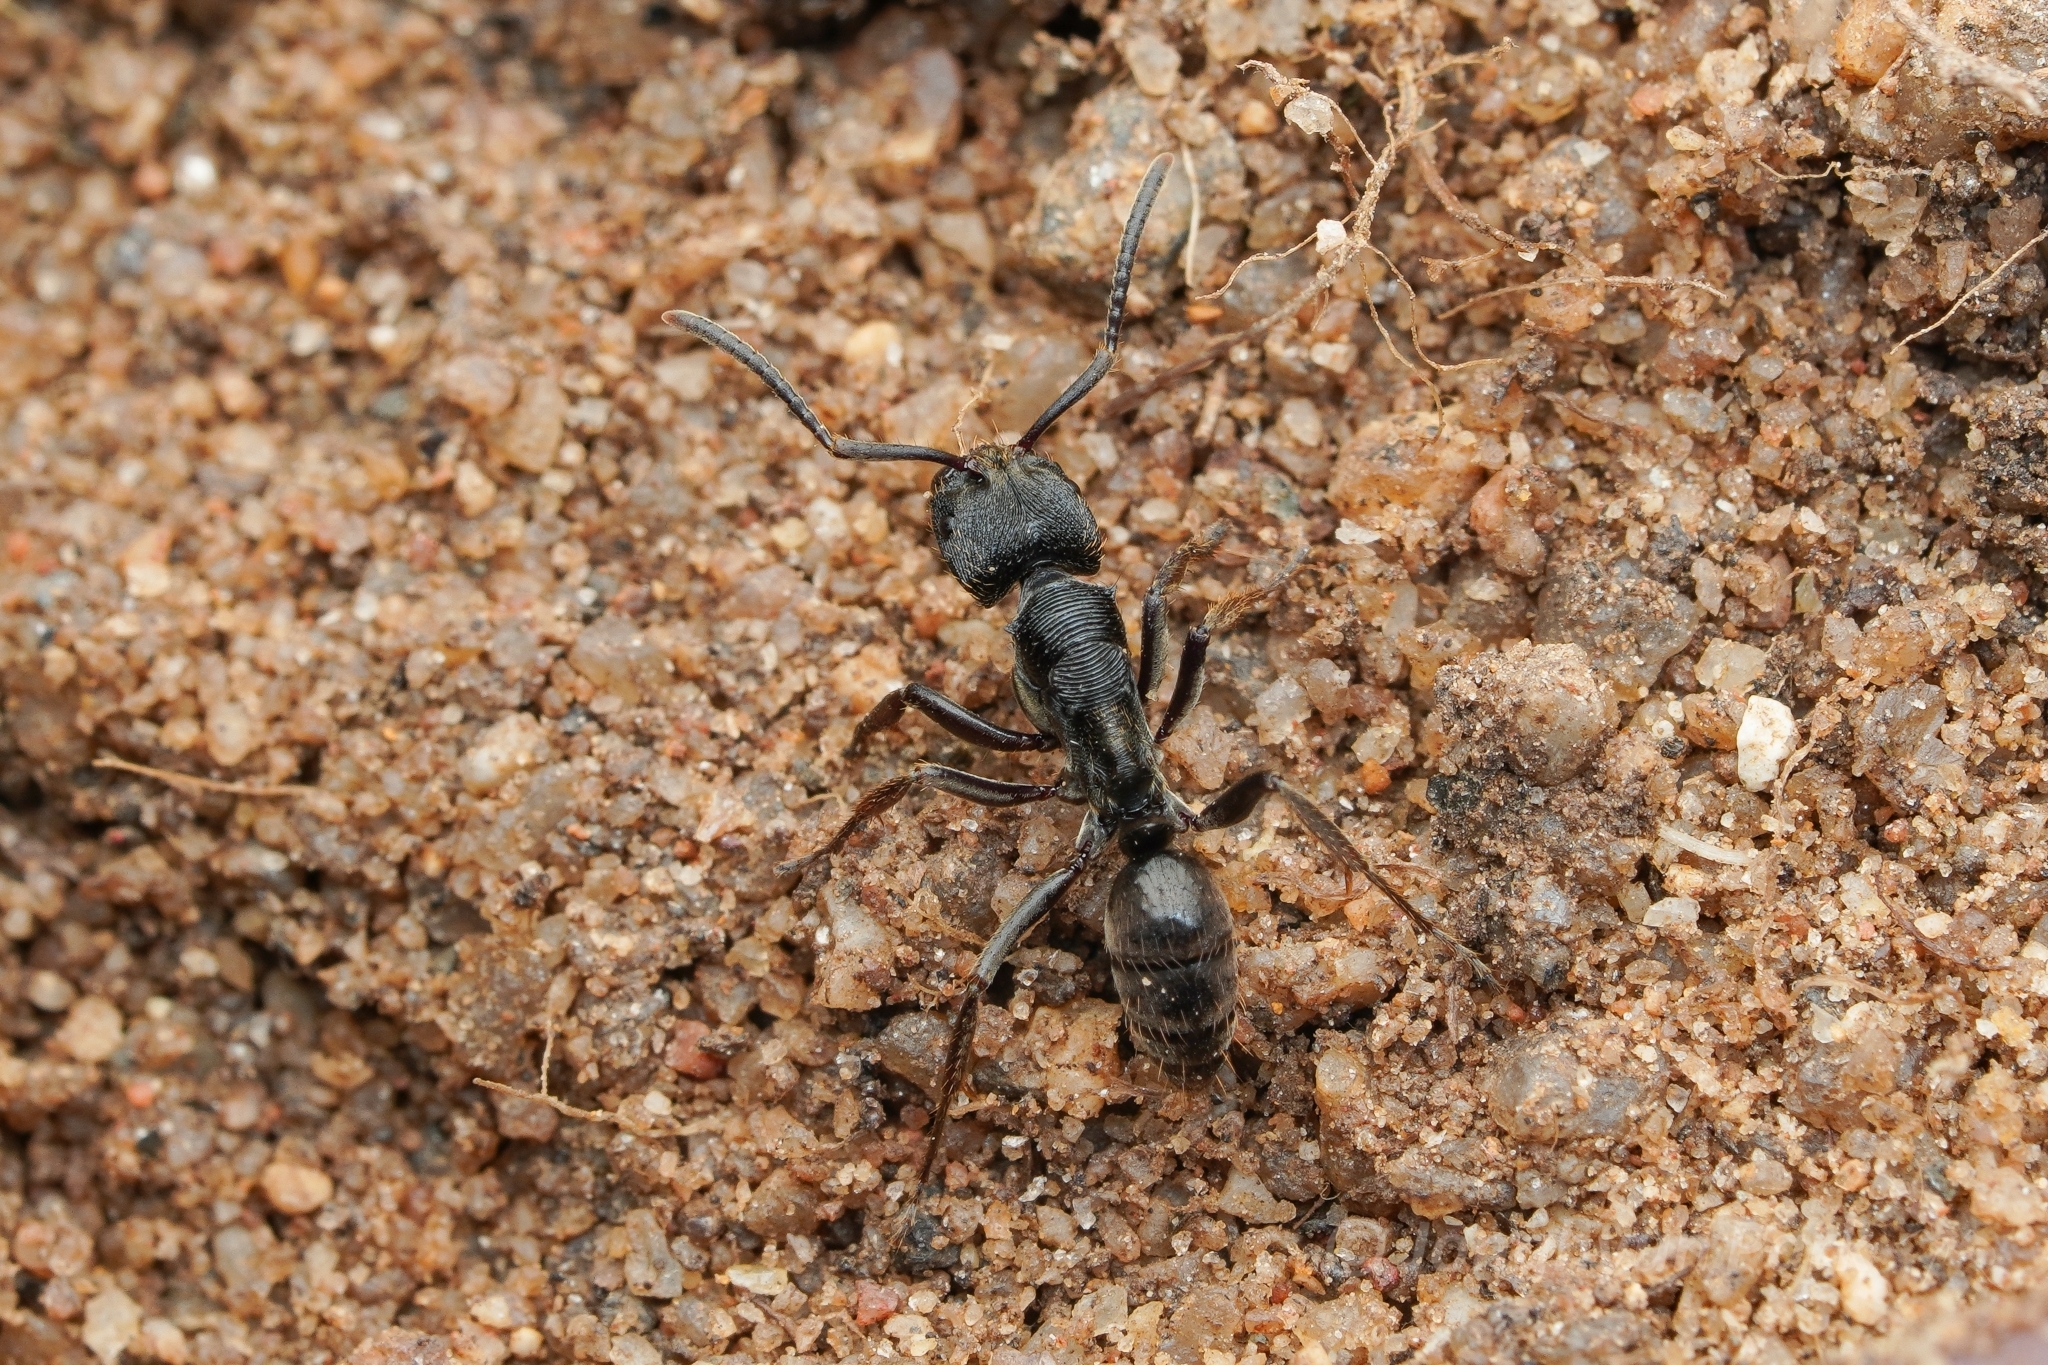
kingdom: Animalia
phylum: Arthropoda
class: Insecta
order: Hymenoptera
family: Formicidae
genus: Odontoponera
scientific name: Odontoponera denticulata
